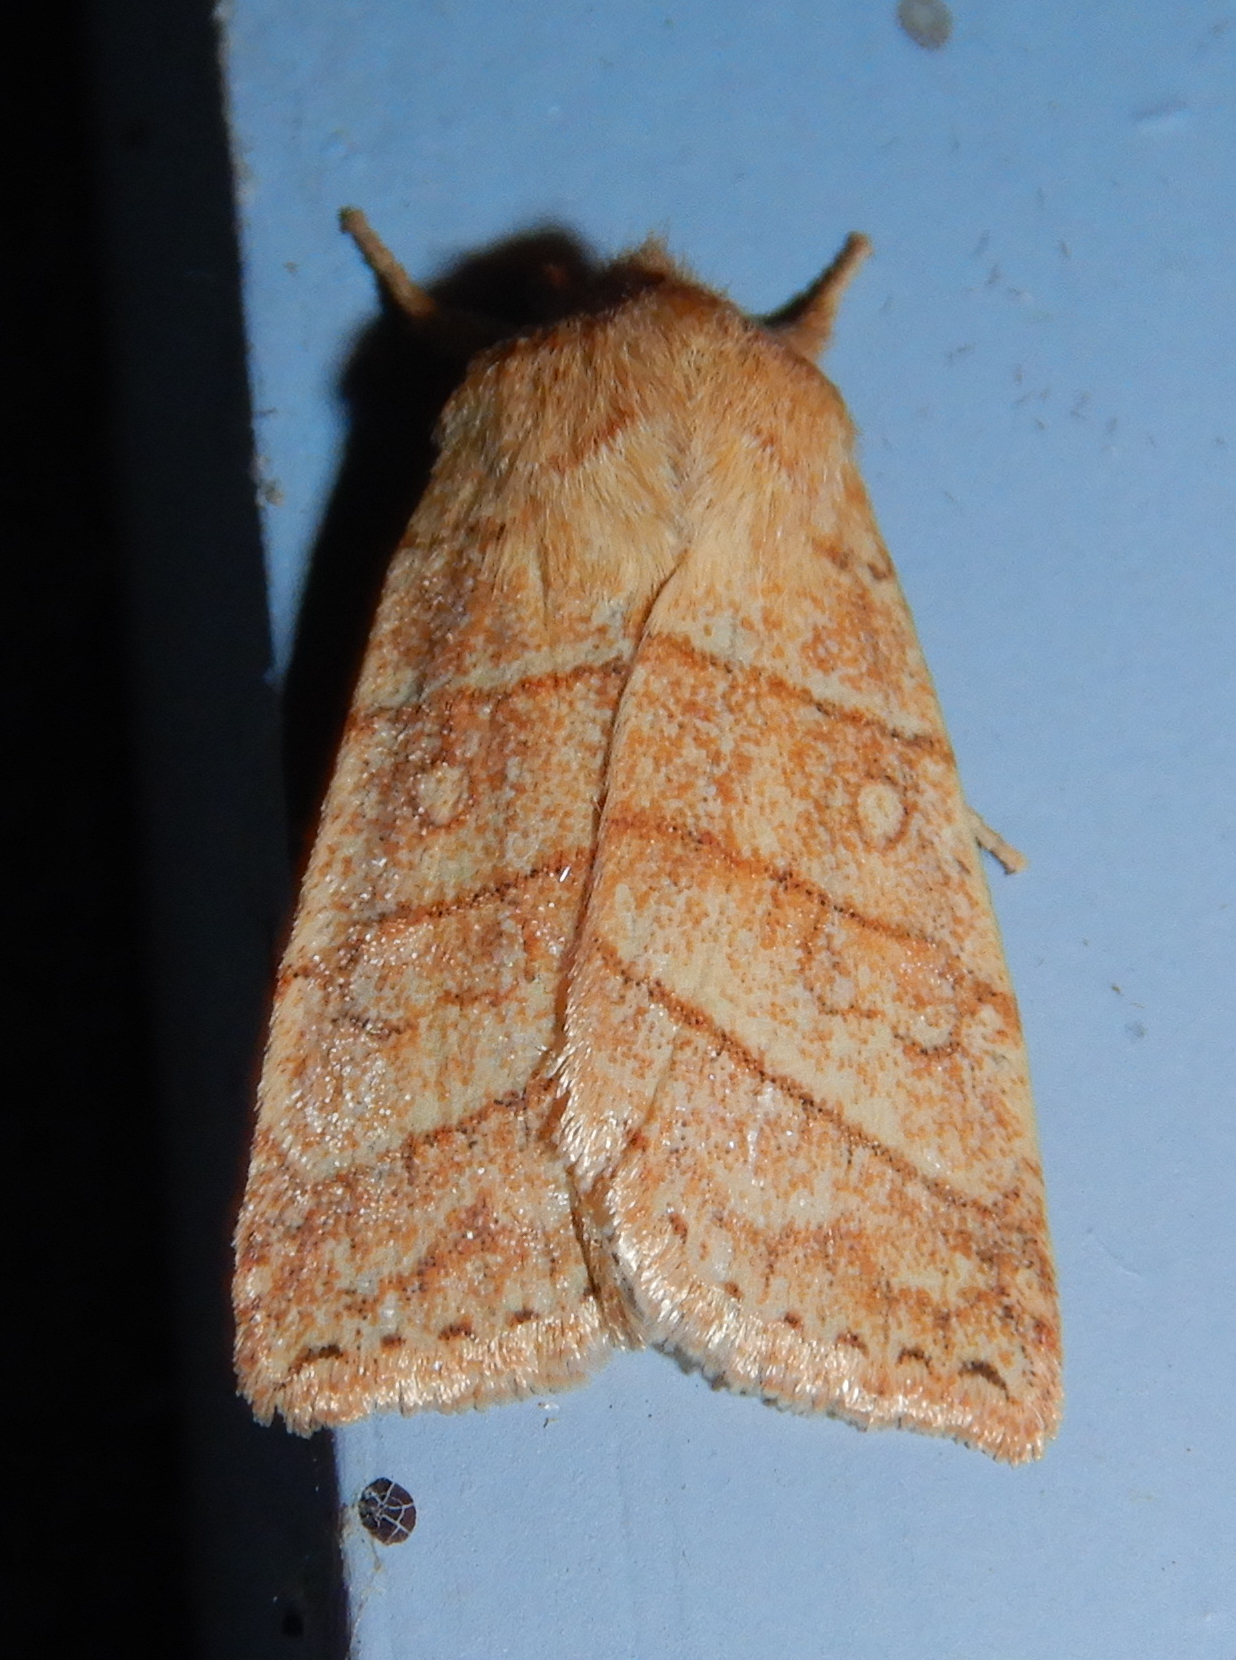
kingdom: Animalia
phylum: Arthropoda
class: Insecta
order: Lepidoptera
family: Noctuidae
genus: Pyreferra
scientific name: Pyreferra citrombra
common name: Citrine sallow
